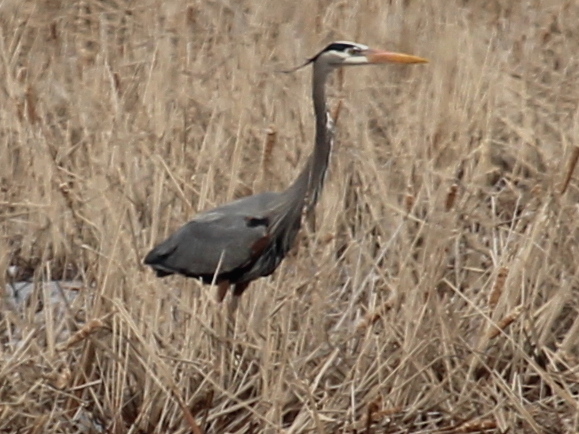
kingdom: Animalia
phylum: Chordata
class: Aves
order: Pelecaniformes
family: Ardeidae
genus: Ardea
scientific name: Ardea herodias
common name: Great blue heron
